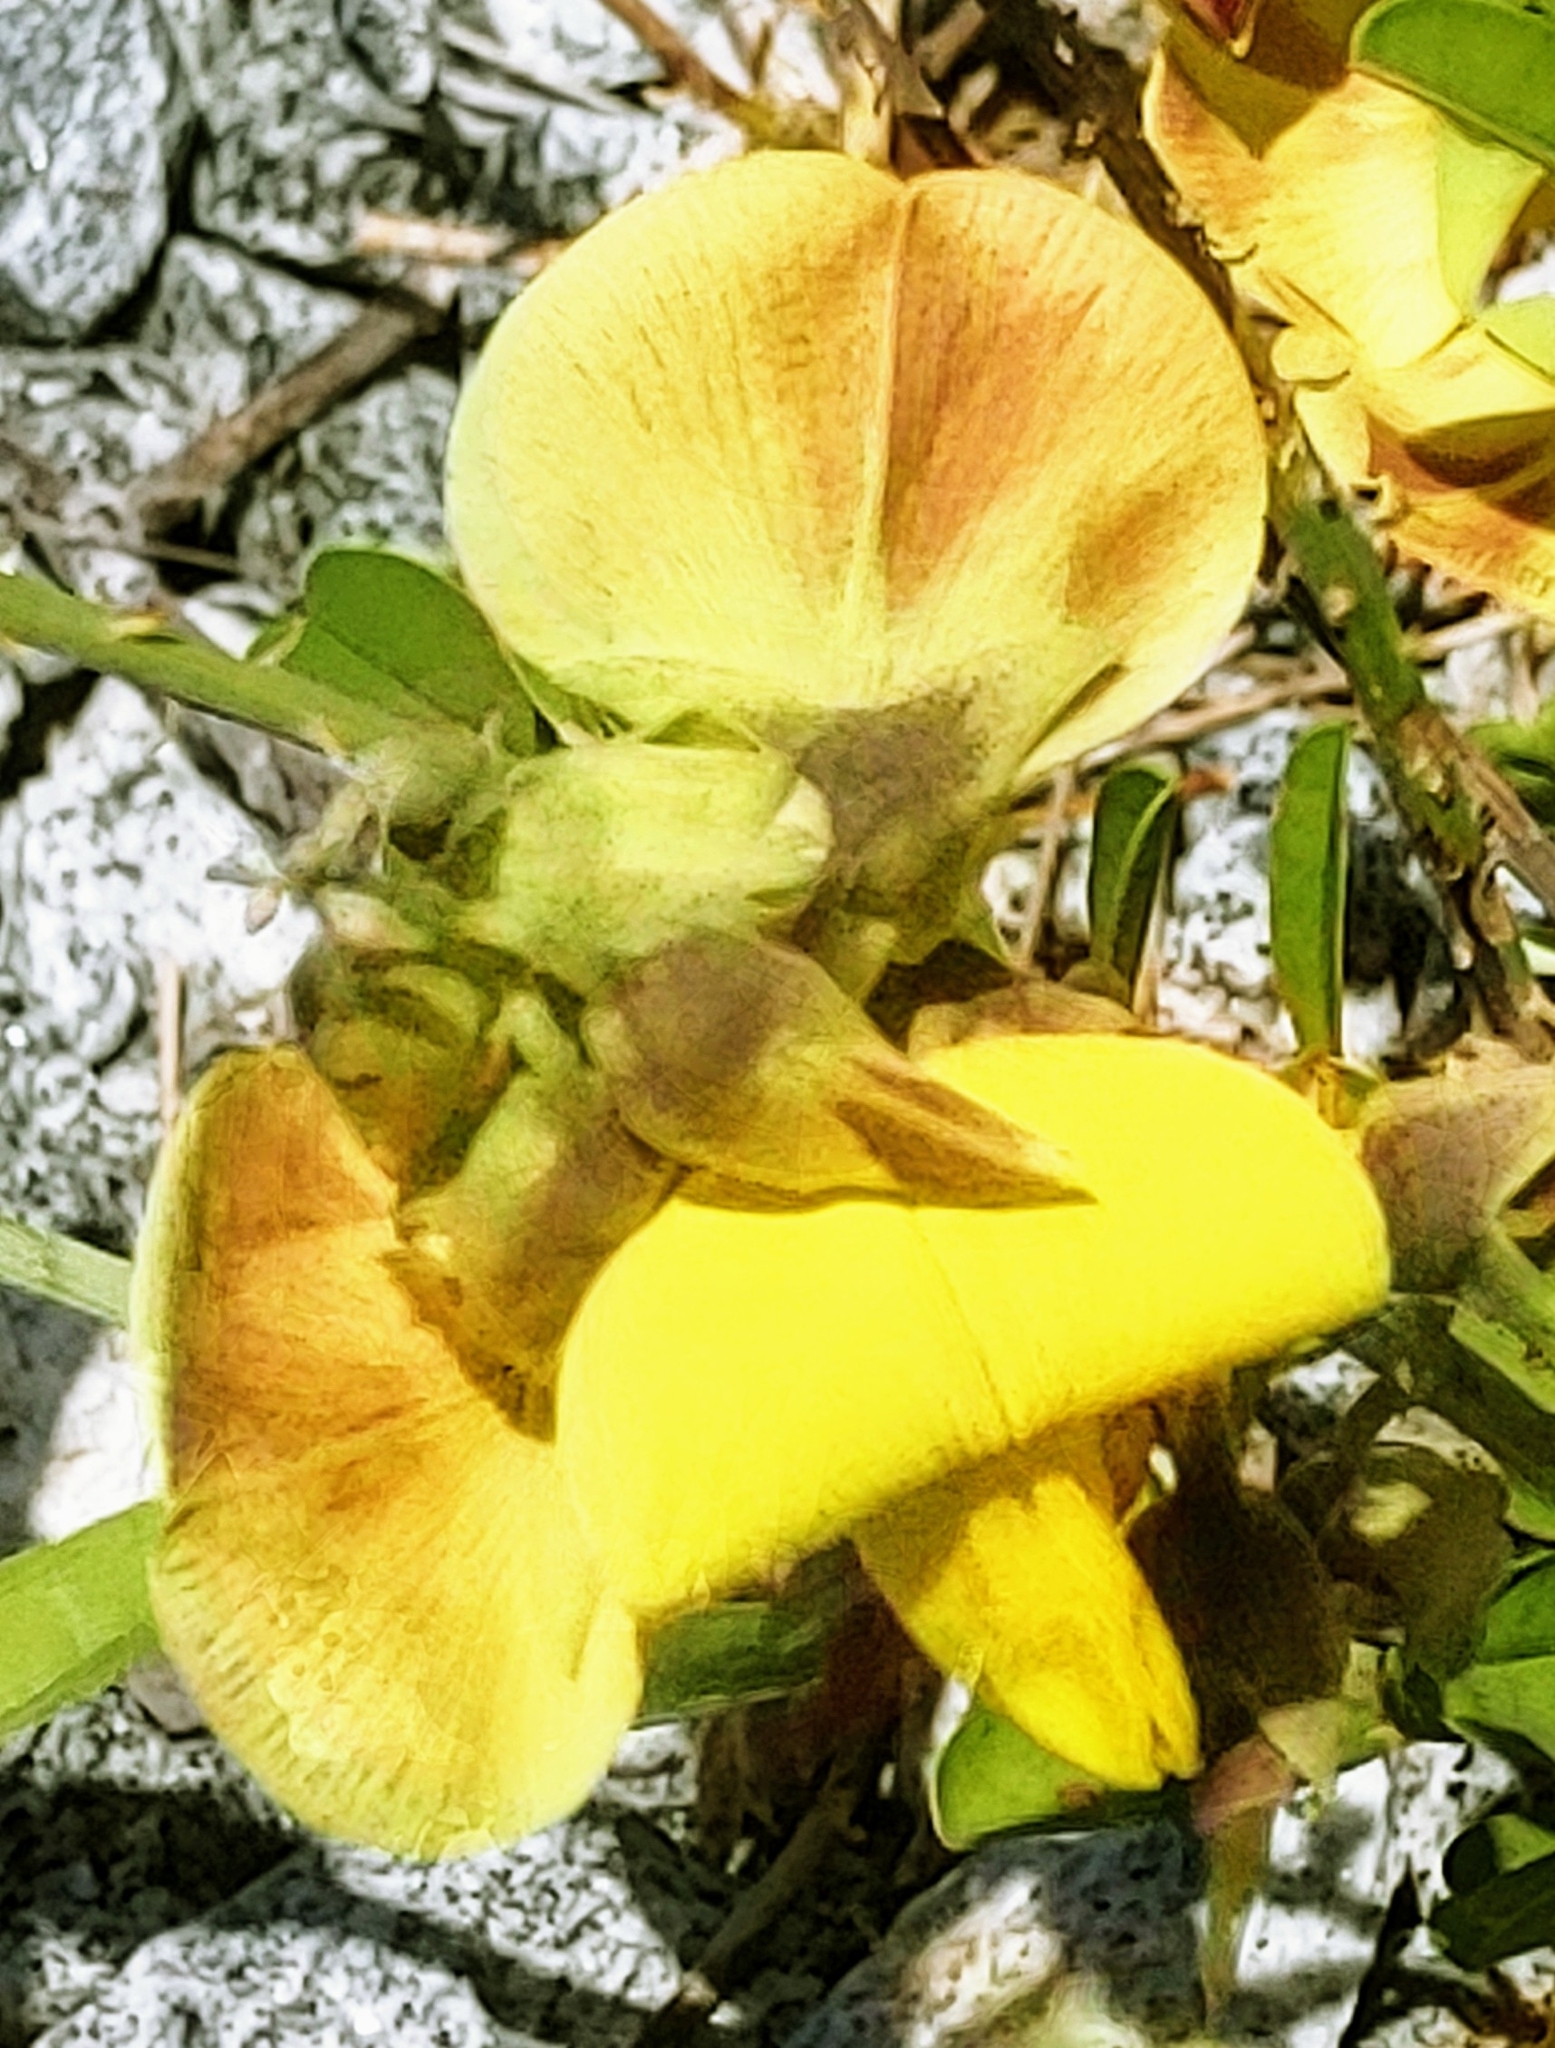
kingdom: Plantae
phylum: Tracheophyta
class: Magnoliopsida
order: Fabales
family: Fabaceae
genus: Crotalaria
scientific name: Crotalaria retusa
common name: Rattleweed
